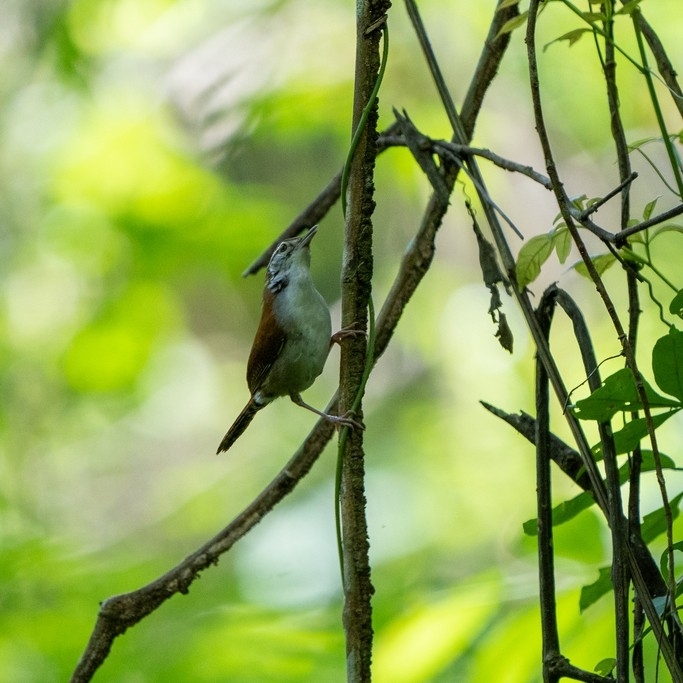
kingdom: Animalia
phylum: Chordata
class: Aves
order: Passeriformes
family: Troglodytidae
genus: Thryophilus
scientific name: Thryophilus rufalbus
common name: Rufous-and-white wren
